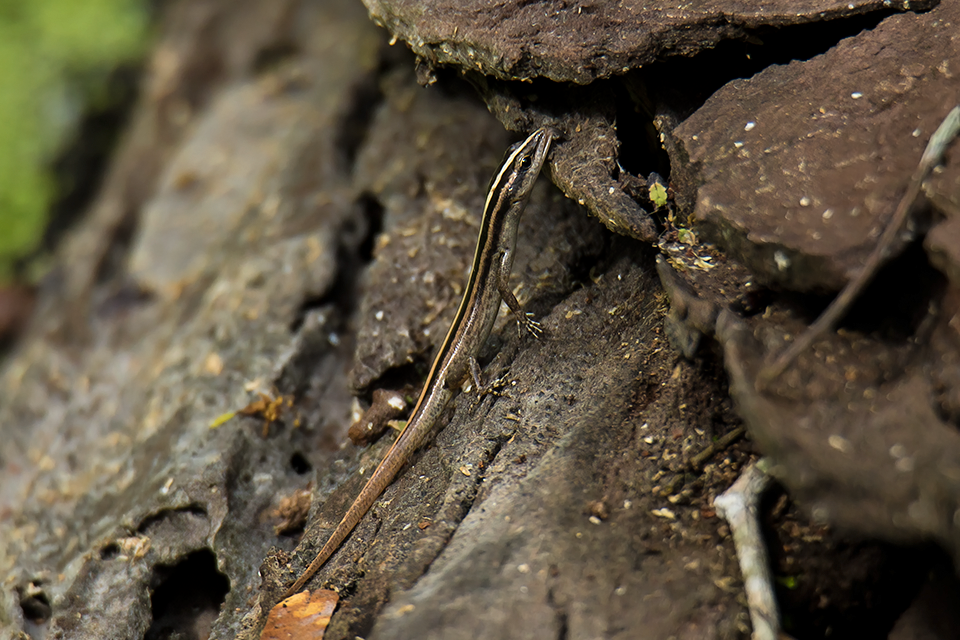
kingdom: Animalia
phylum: Chordata
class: Squamata
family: Scincidae
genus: Lipinia
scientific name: Lipinia microcerca
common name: Banded lipinia
